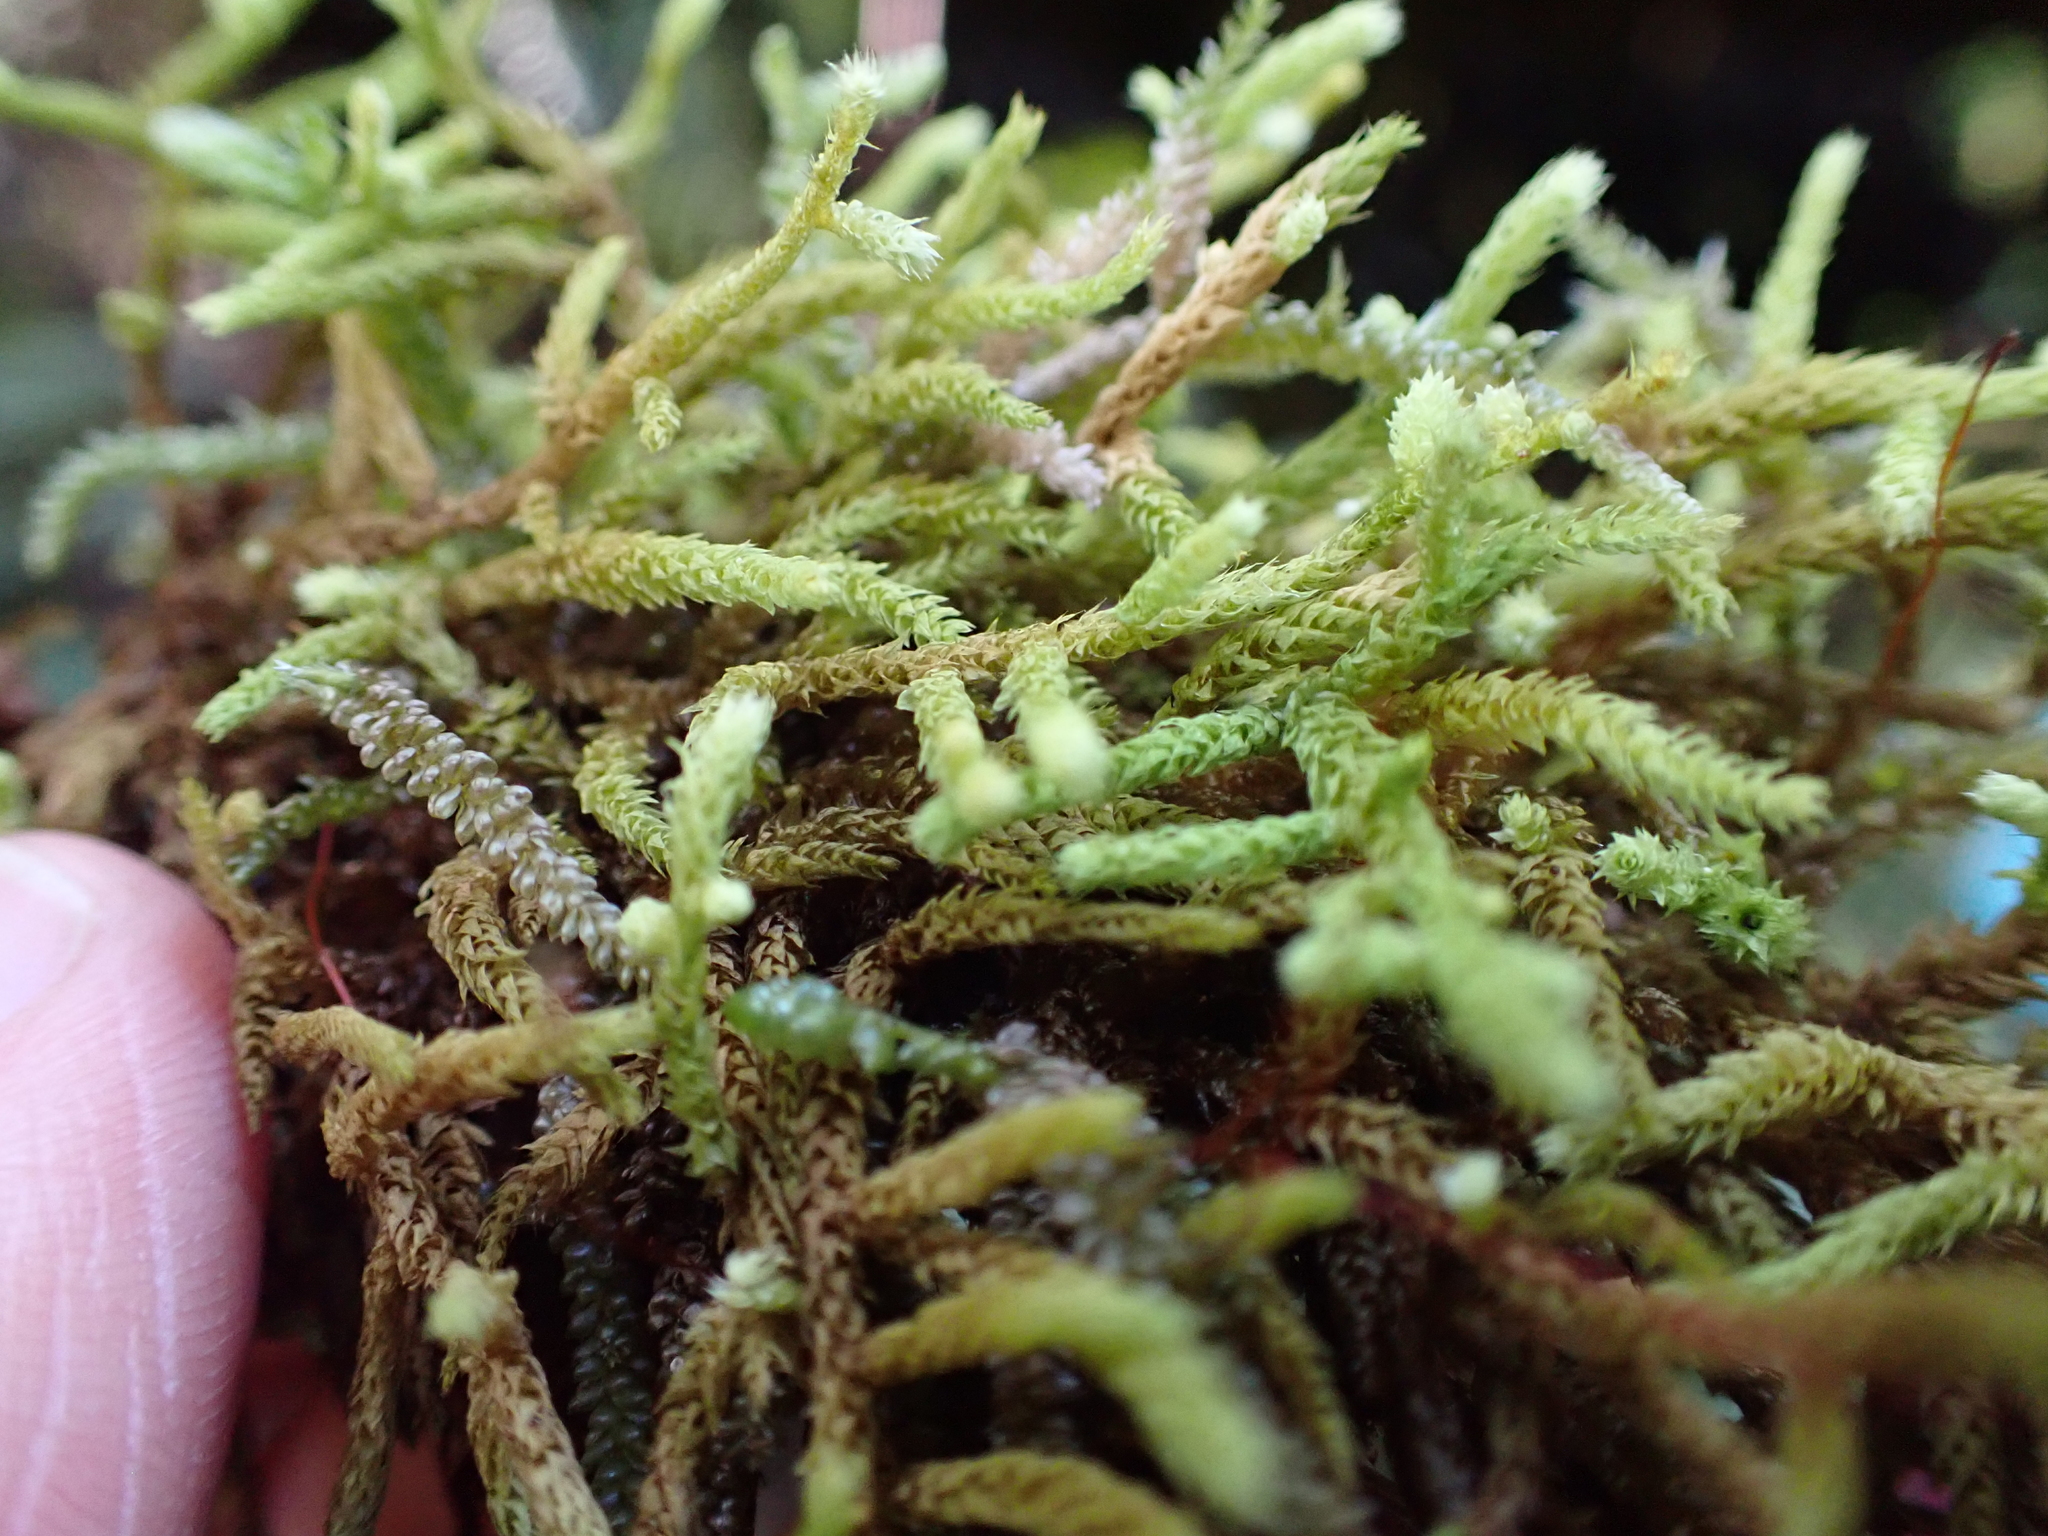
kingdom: Plantae
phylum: Bryophyta
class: Bryopsida
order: Hypnales
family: Meteoriaceae
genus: Papillaria
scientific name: Papillaria flavolimbata
